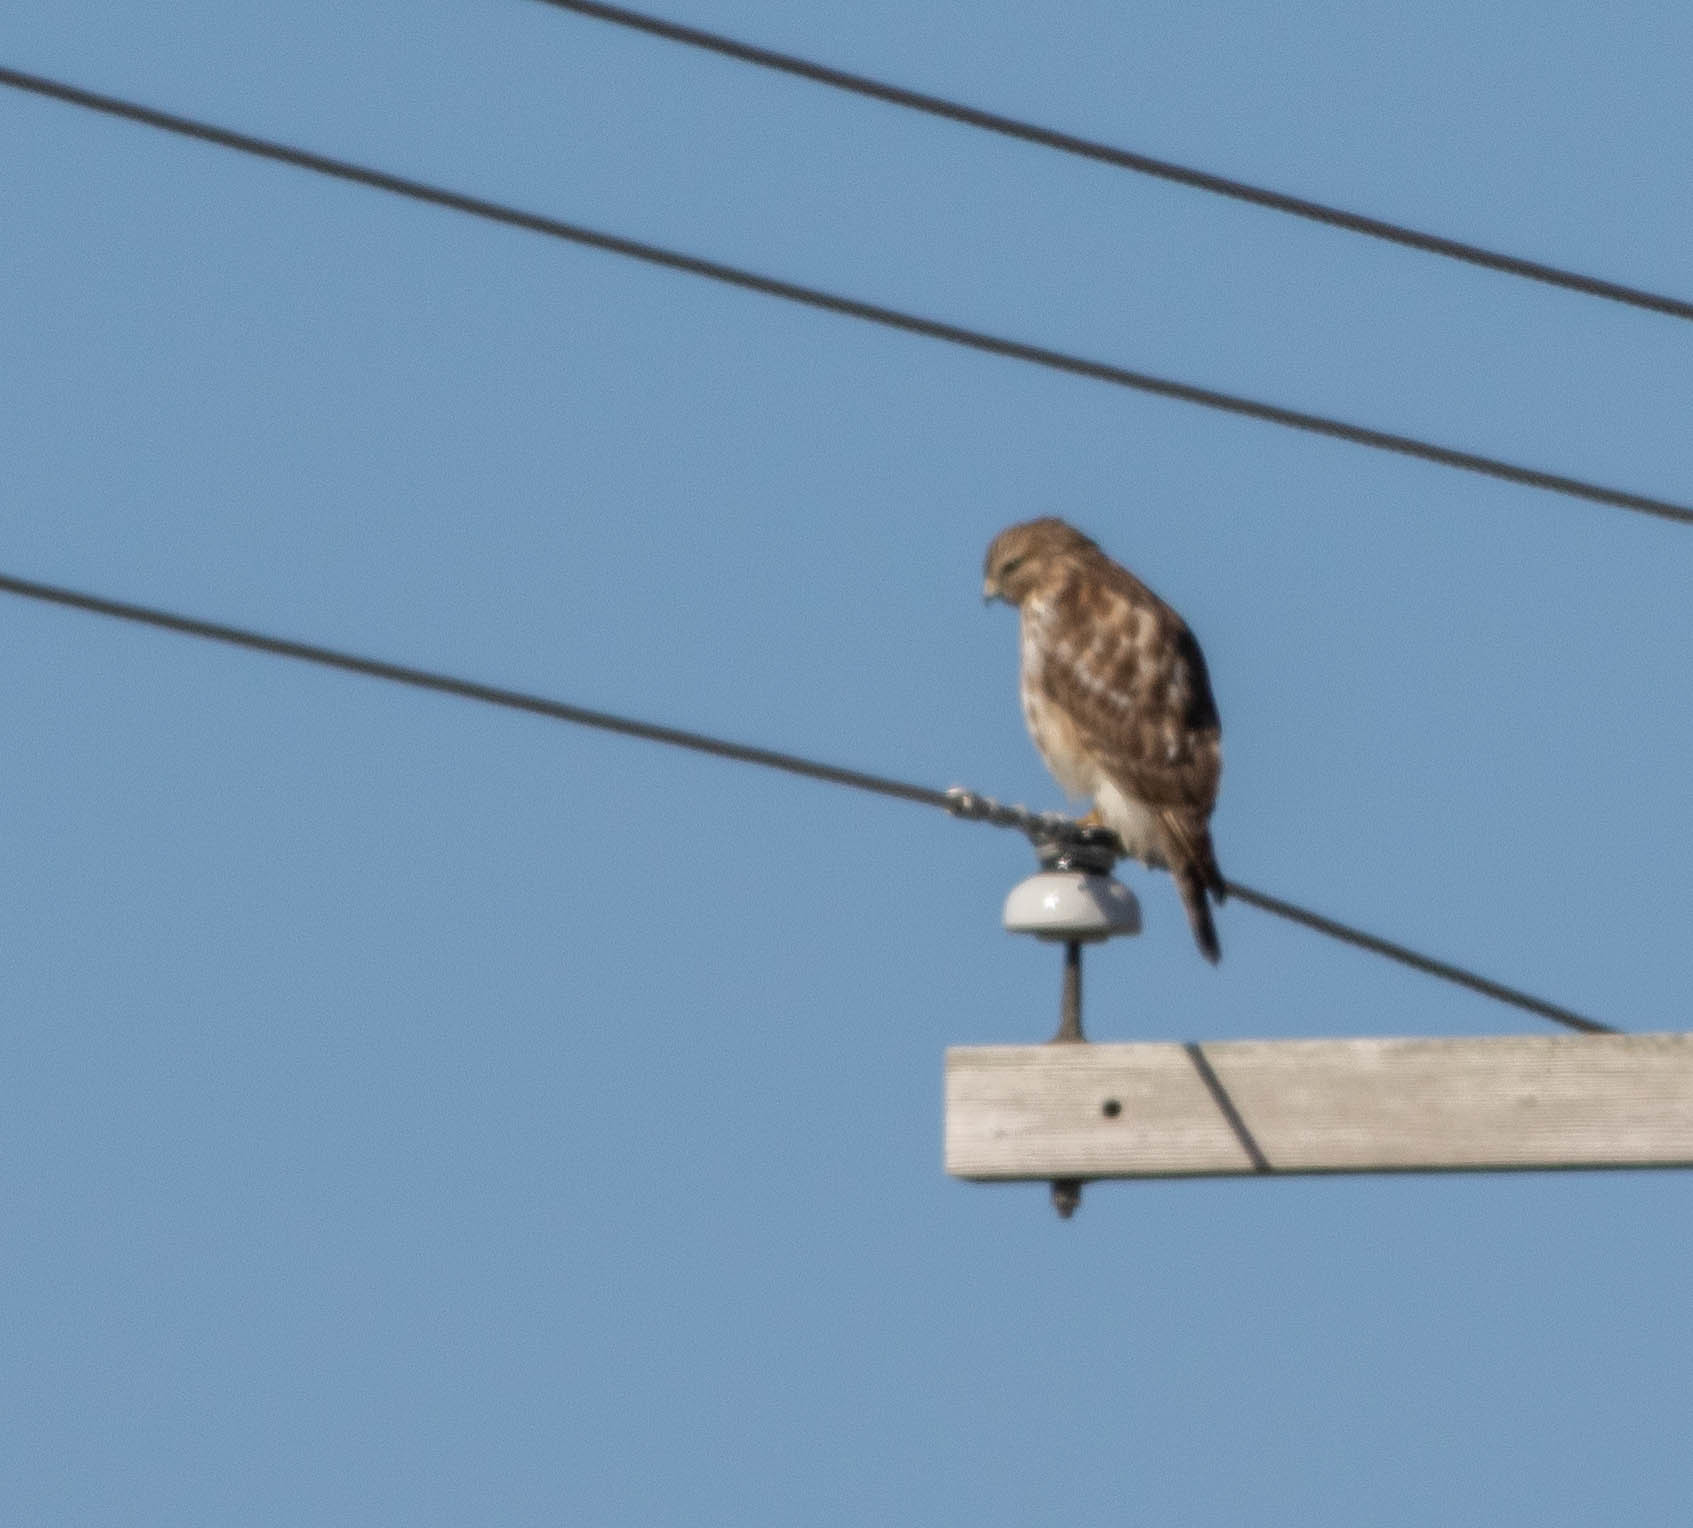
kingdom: Animalia
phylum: Chordata
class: Aves
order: Accipitriformes
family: Accipitridae
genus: Buteo
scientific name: Buteo lineatus
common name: Red-shouldered hawk
